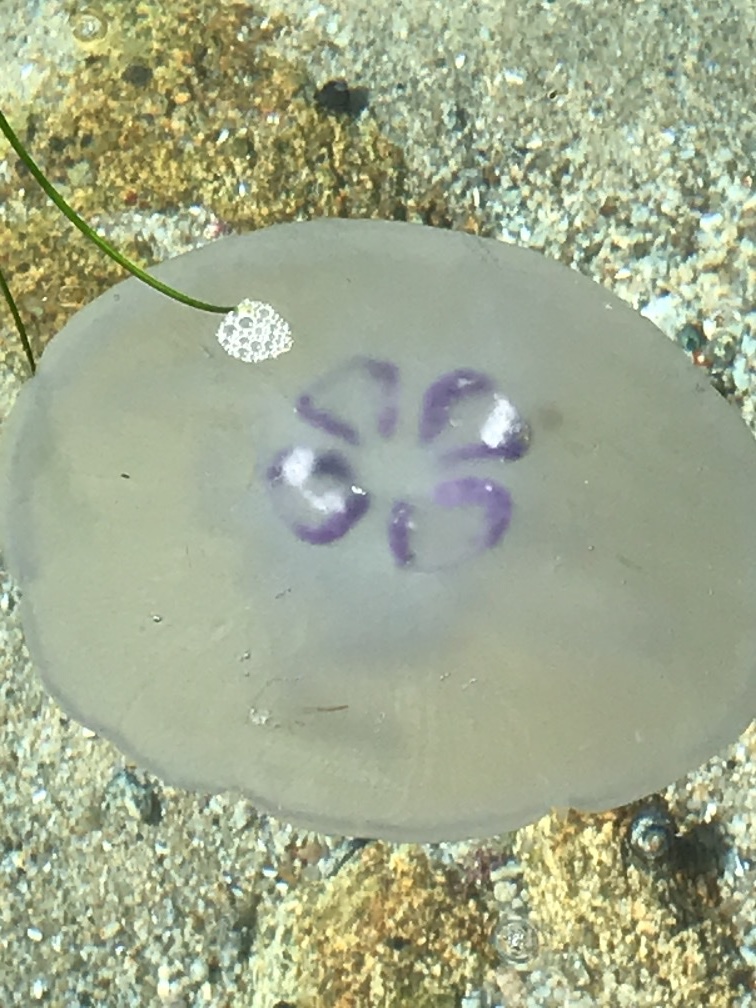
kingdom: Animalia
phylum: Cnidaria
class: Scyphozoa
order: Semaeostomeae
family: Ulmaridae
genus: Aurelia
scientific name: Aurelia labiata
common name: Pacific moon jelly
